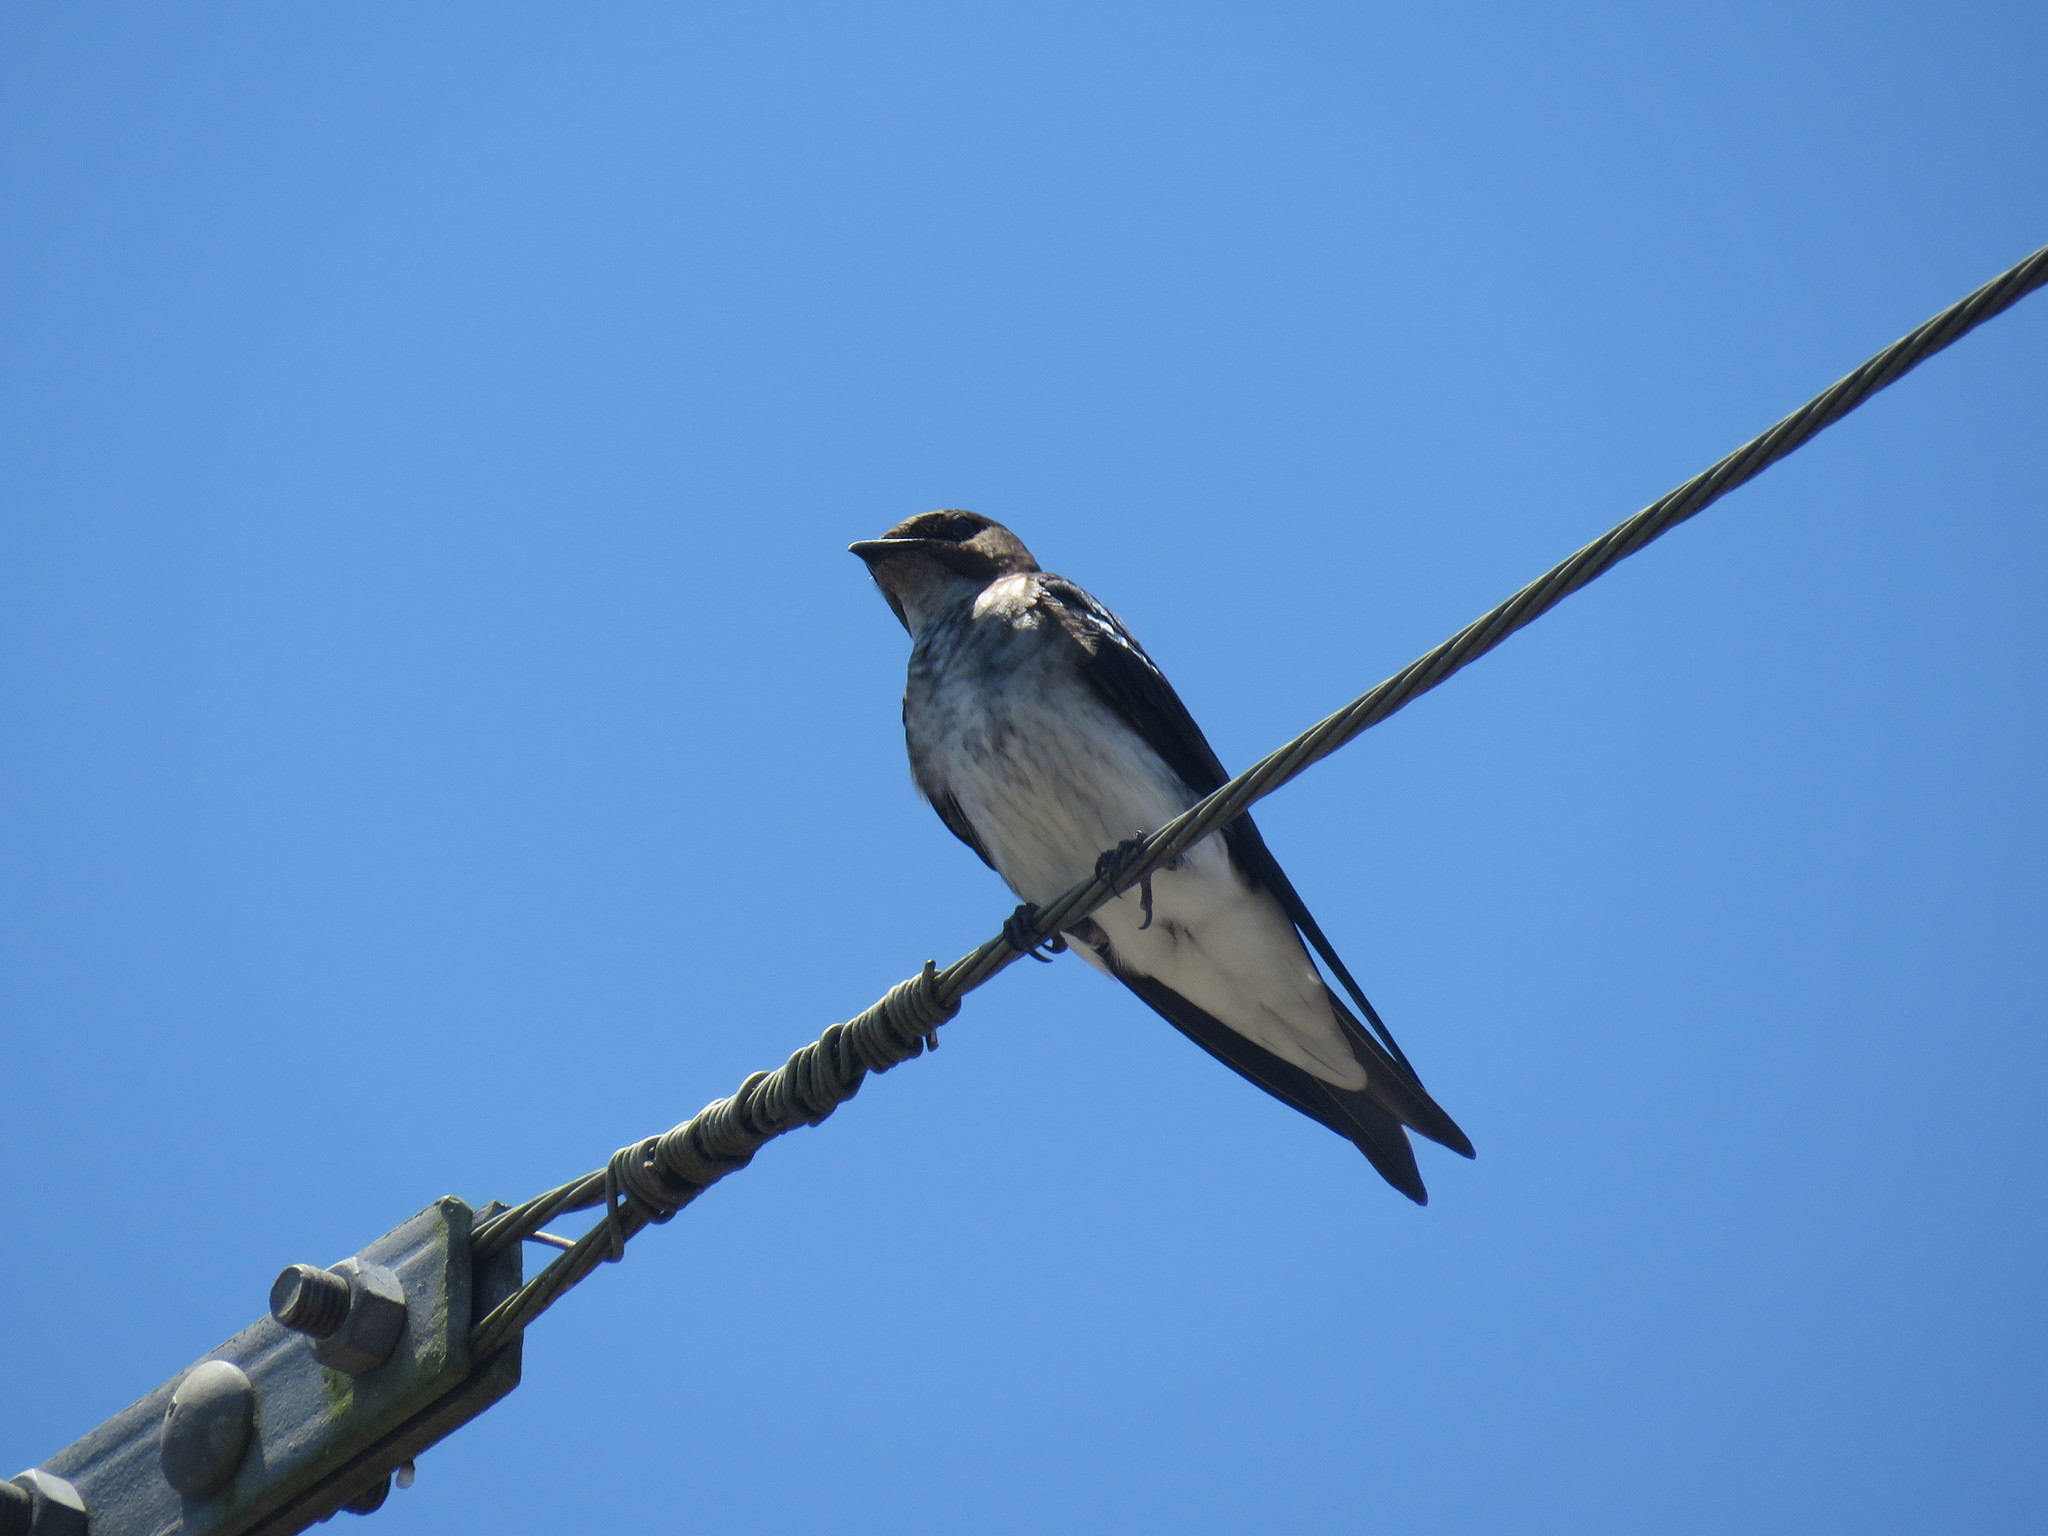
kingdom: Animalia
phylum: Chordata
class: Aves
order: Passeriformes
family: Hirundinidae
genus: Progne
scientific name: Progne chalybea
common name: Grey-breasted martin
